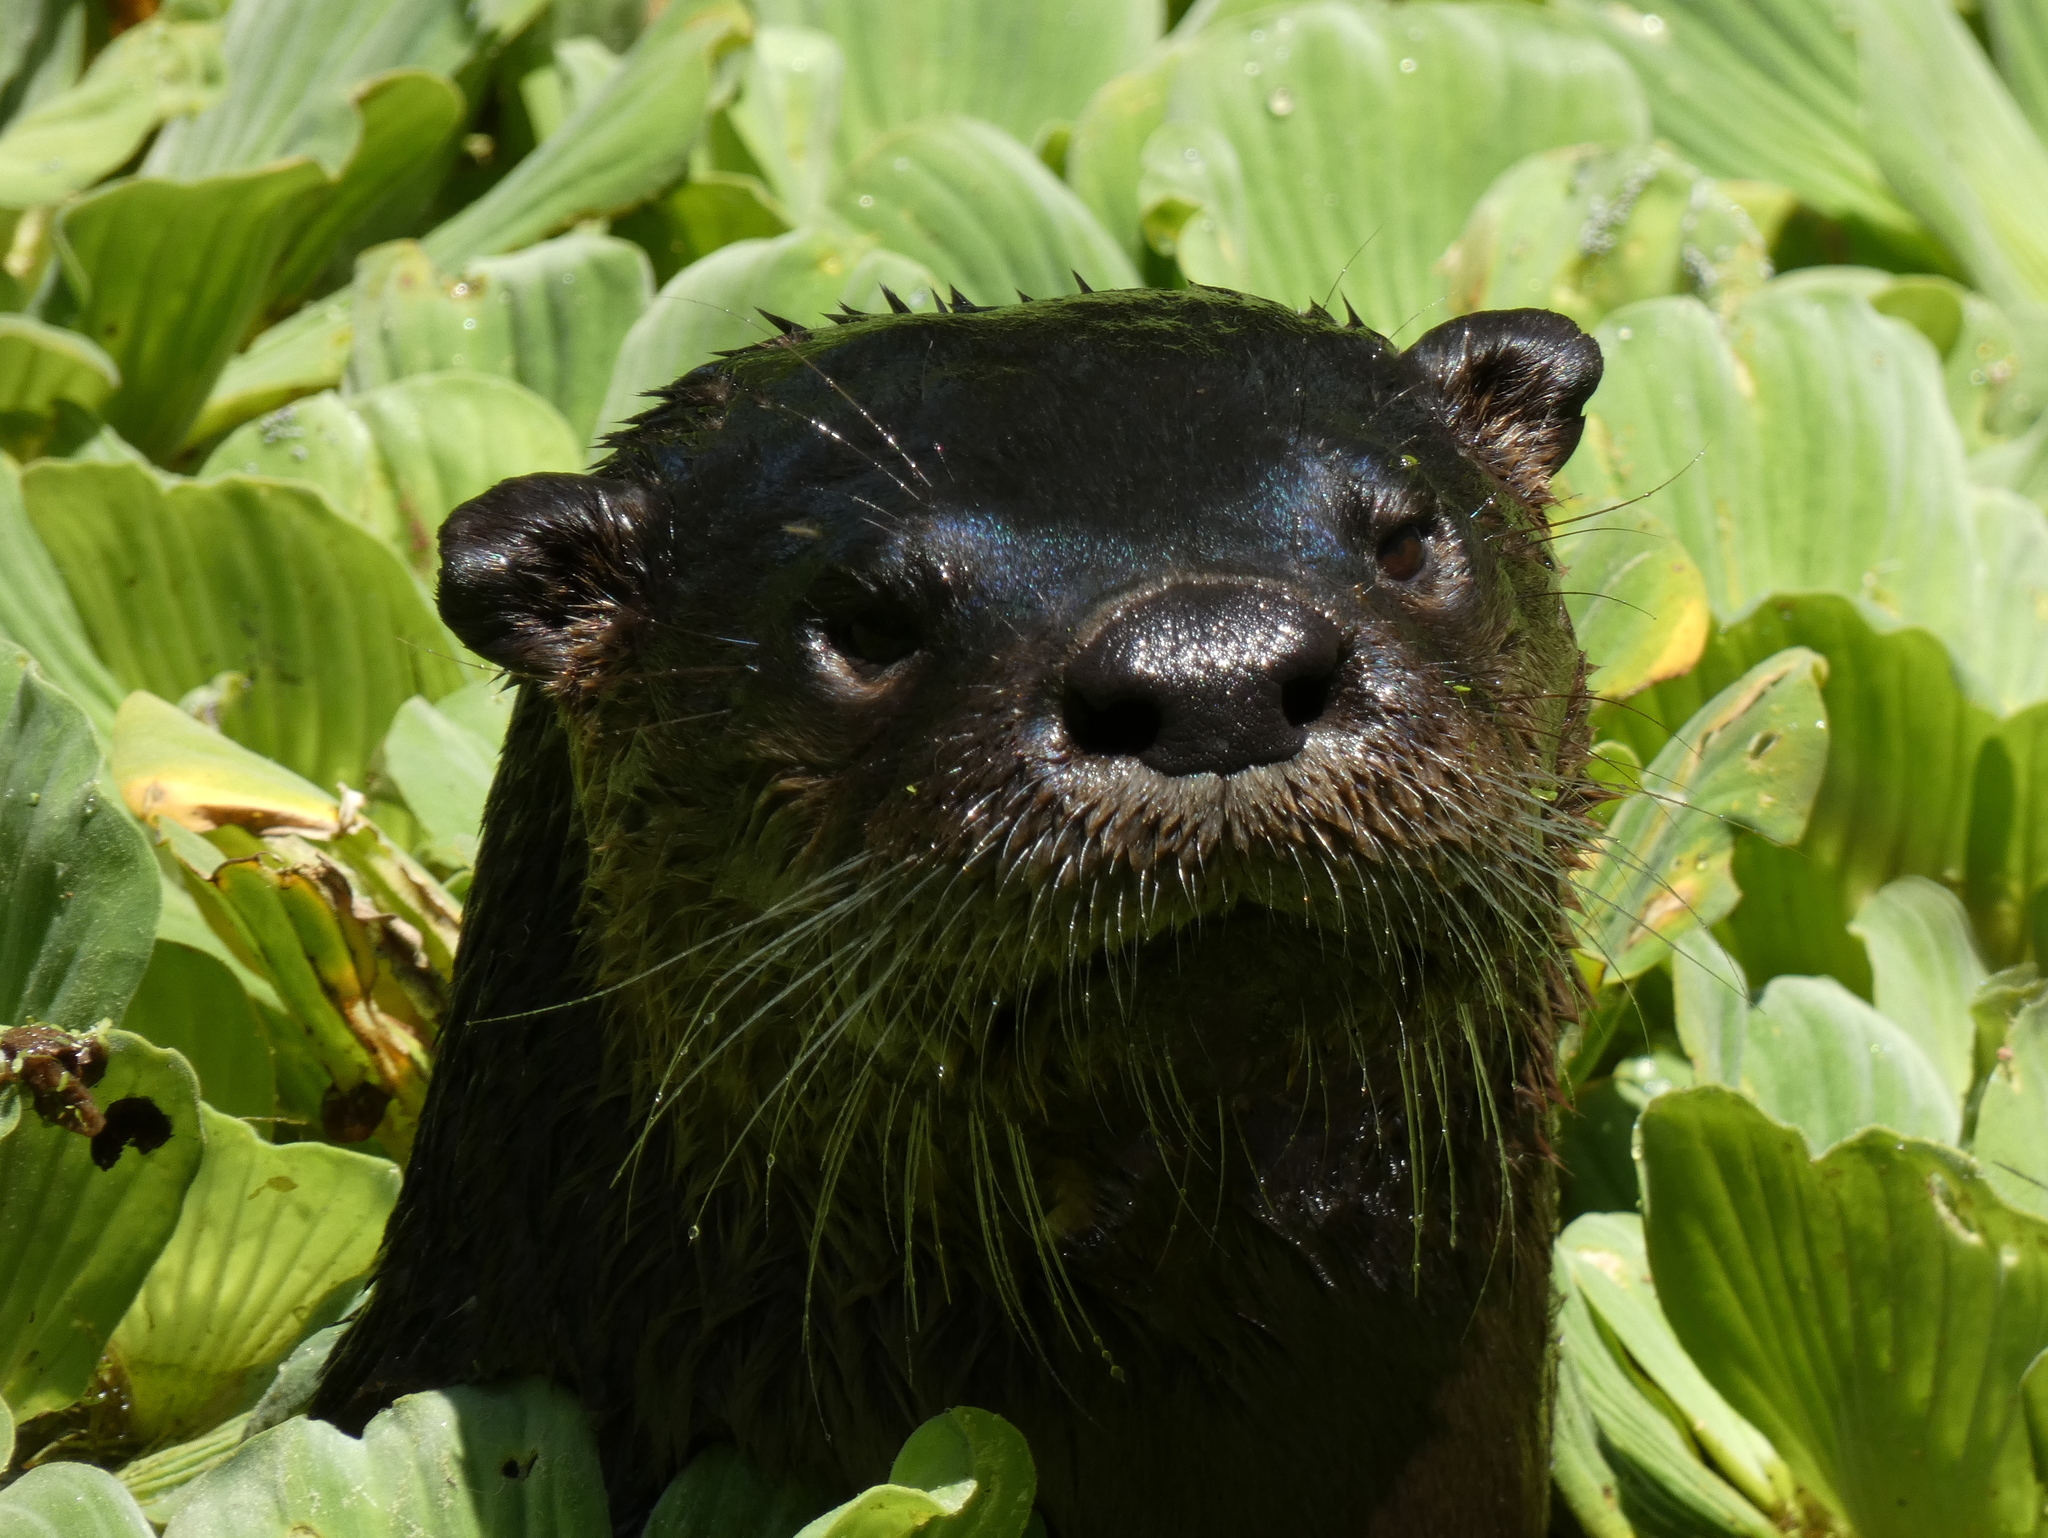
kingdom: Animalia
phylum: Chordata
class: Mammalia
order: Carnivora
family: Mustelidae
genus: Lontra
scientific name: Lontra canadensis
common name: North american river otter
